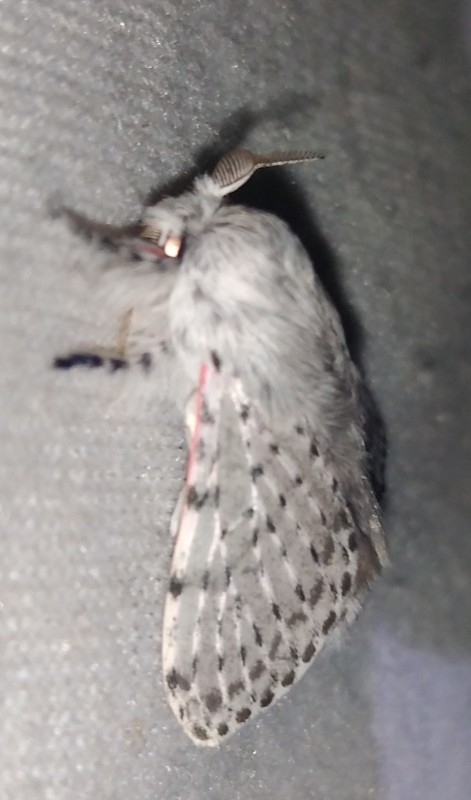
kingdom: Animalia
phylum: Arthropoda
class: Insecta
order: Lepidoptera
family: Lasiocampidae
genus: Artace
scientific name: Artace itatiaya
